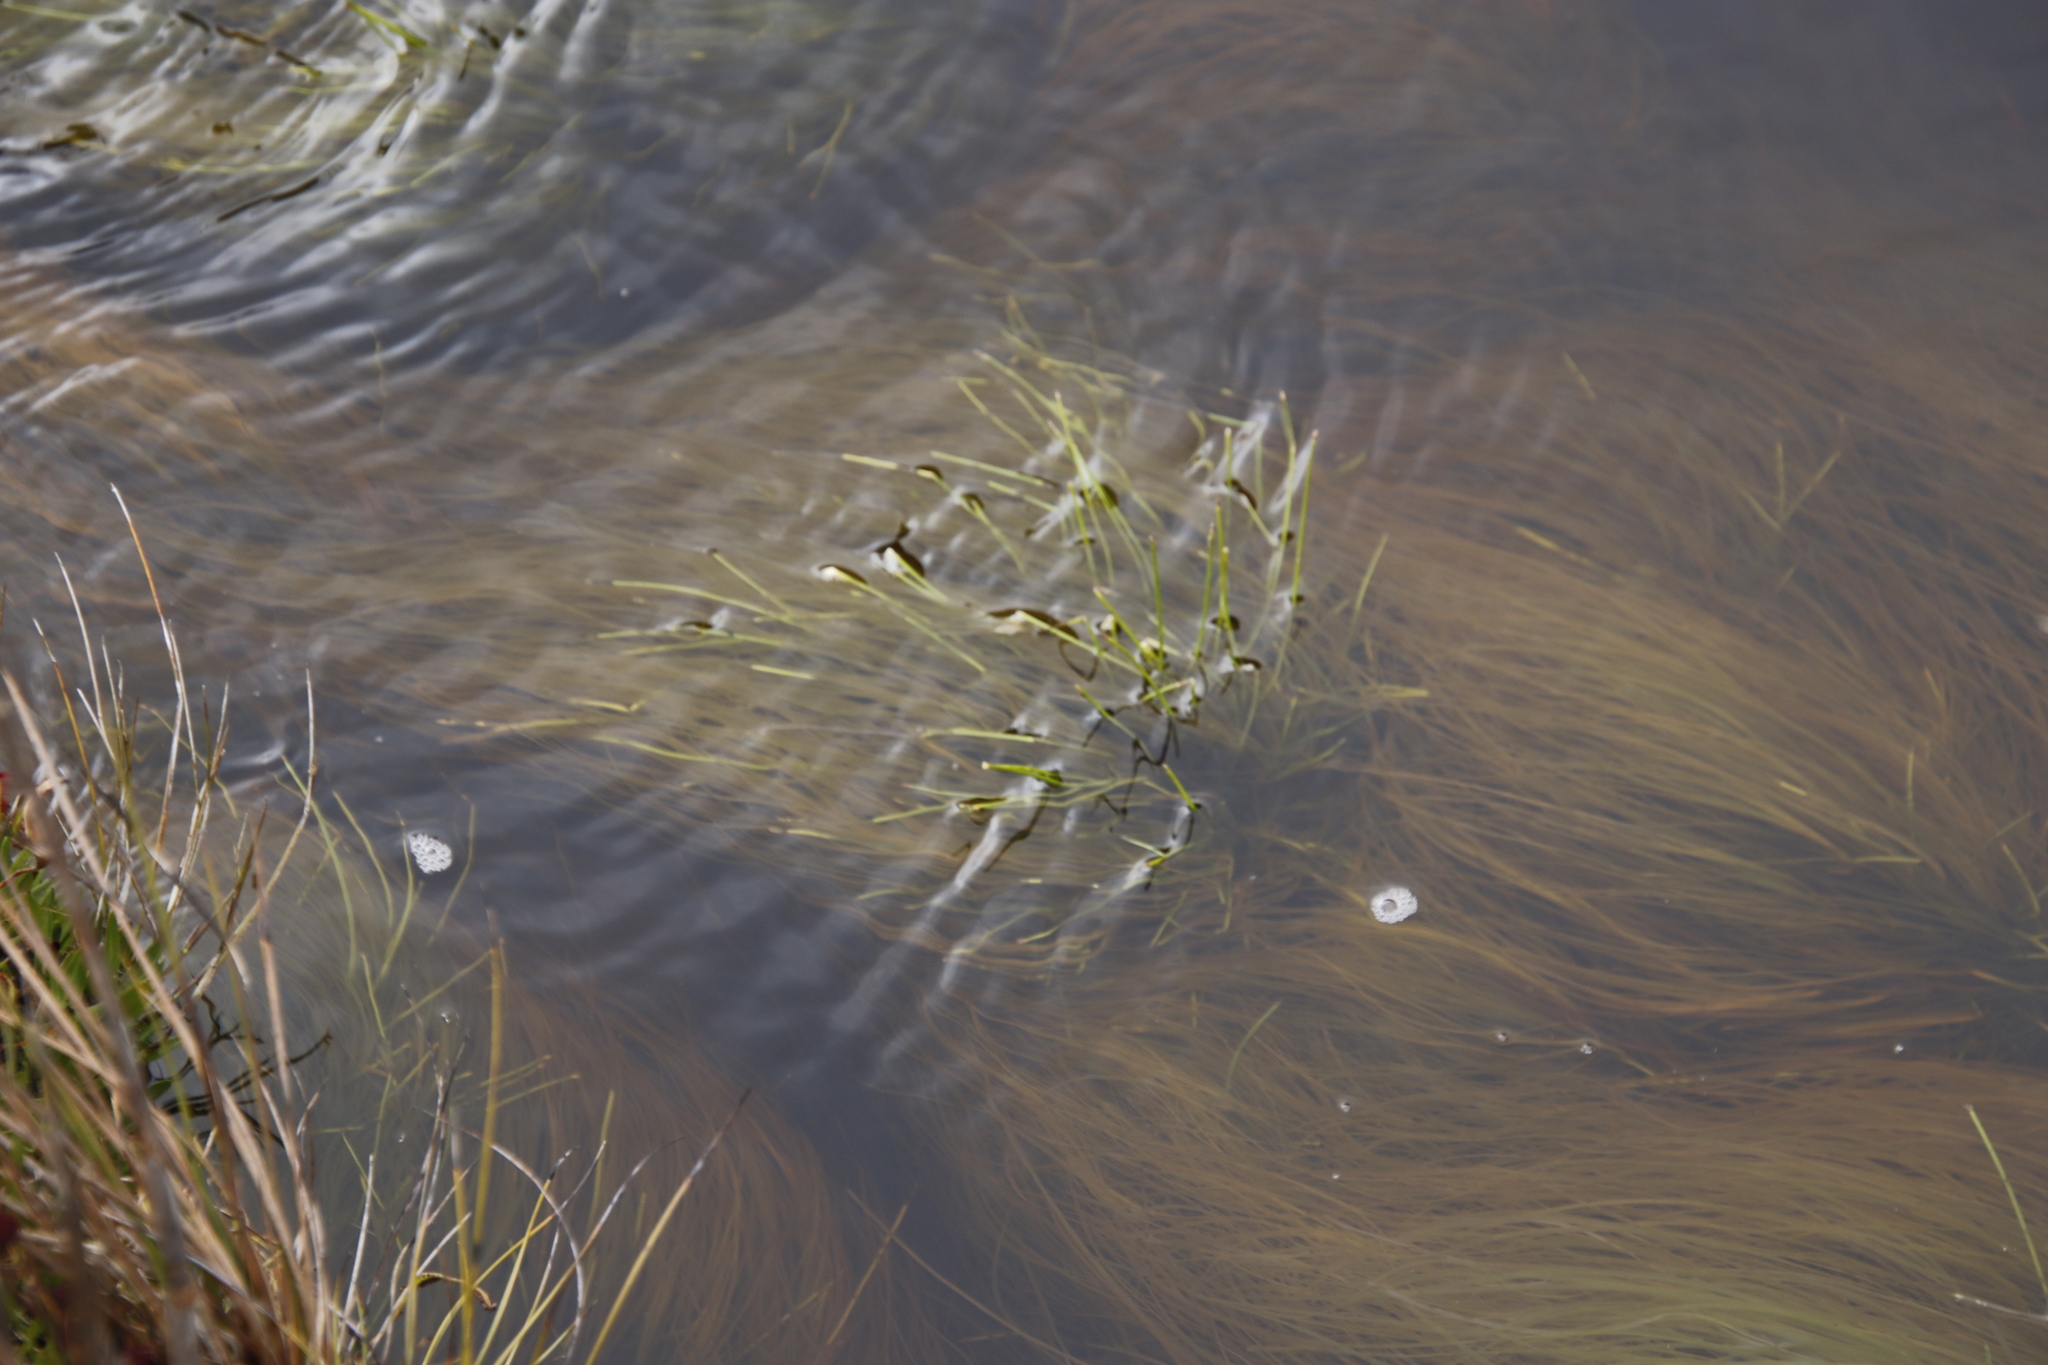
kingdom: Plantae
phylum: Tracheophyta
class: Liliopsida
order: Poales
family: Cyperaceae
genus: Isolepis
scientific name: Isolepis digitata
